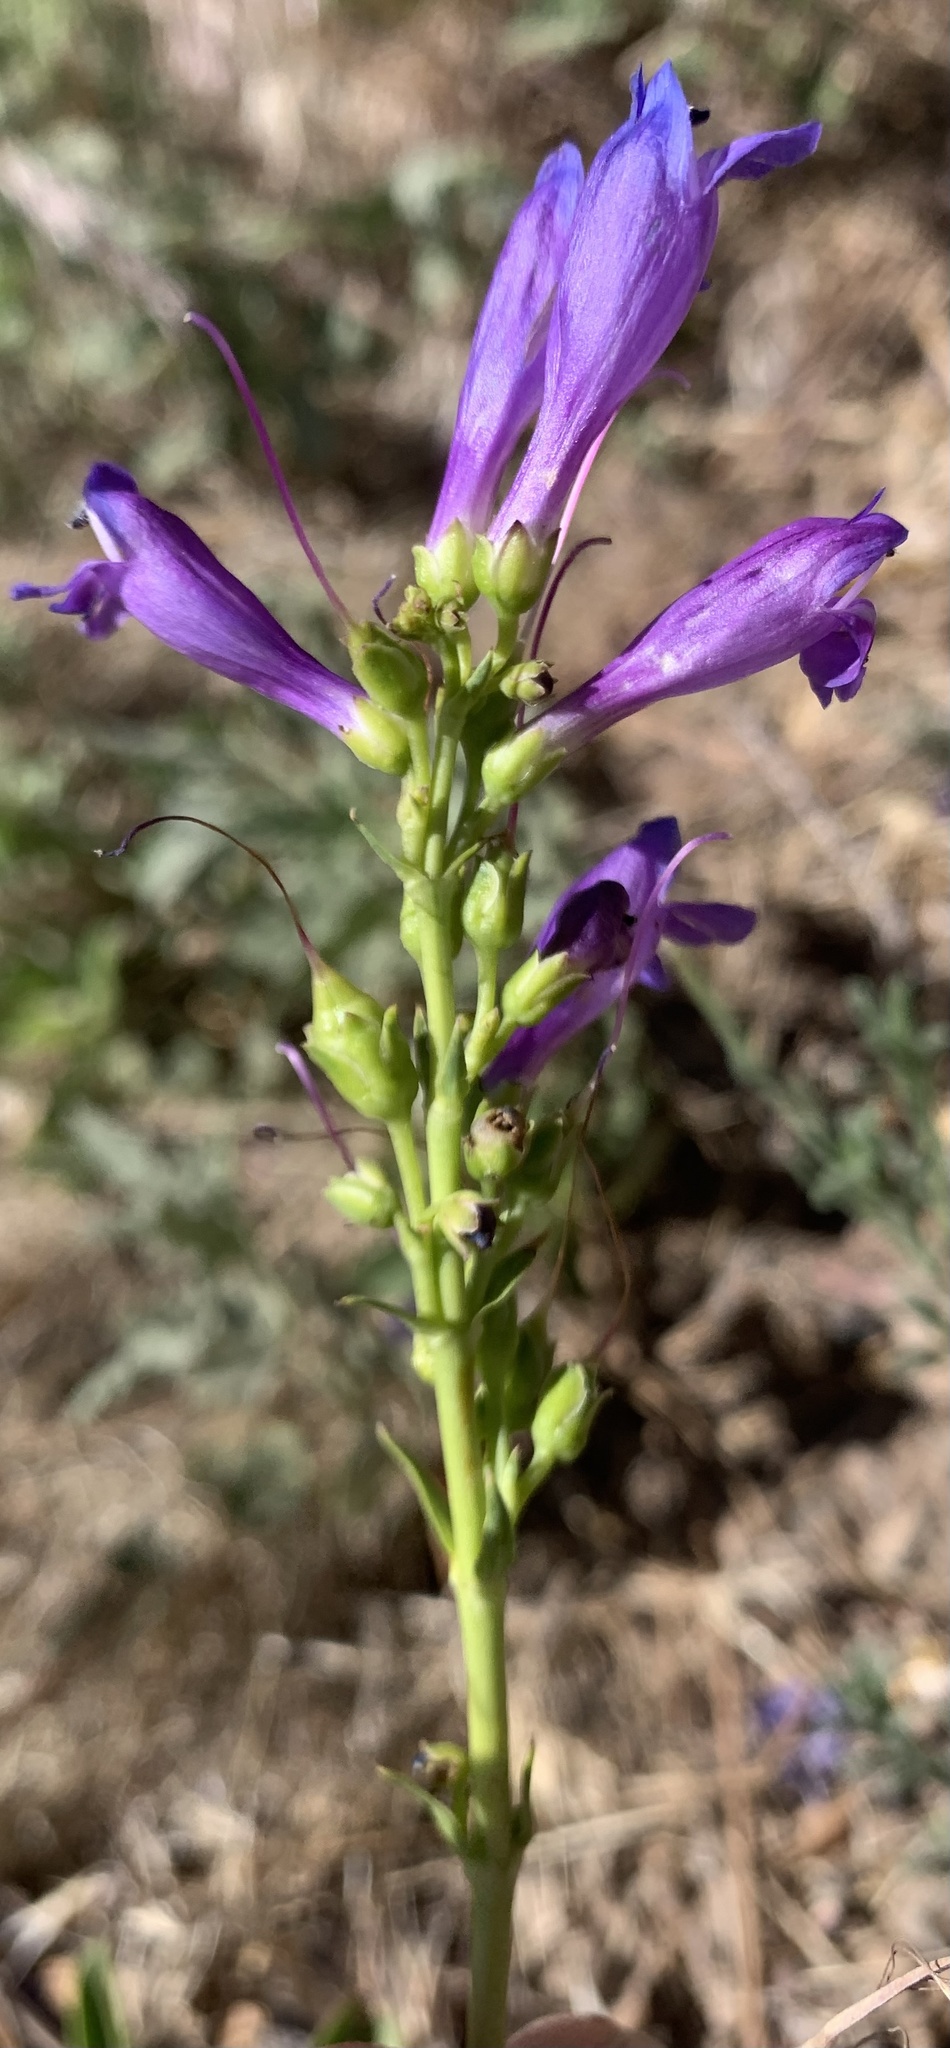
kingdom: Plantae
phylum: Tracheophyta
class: Magnoliopsida
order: Lamiales
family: Plantaginaceae
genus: Penstemon
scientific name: Penstemon strictus
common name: Rocky mountain penstemon
